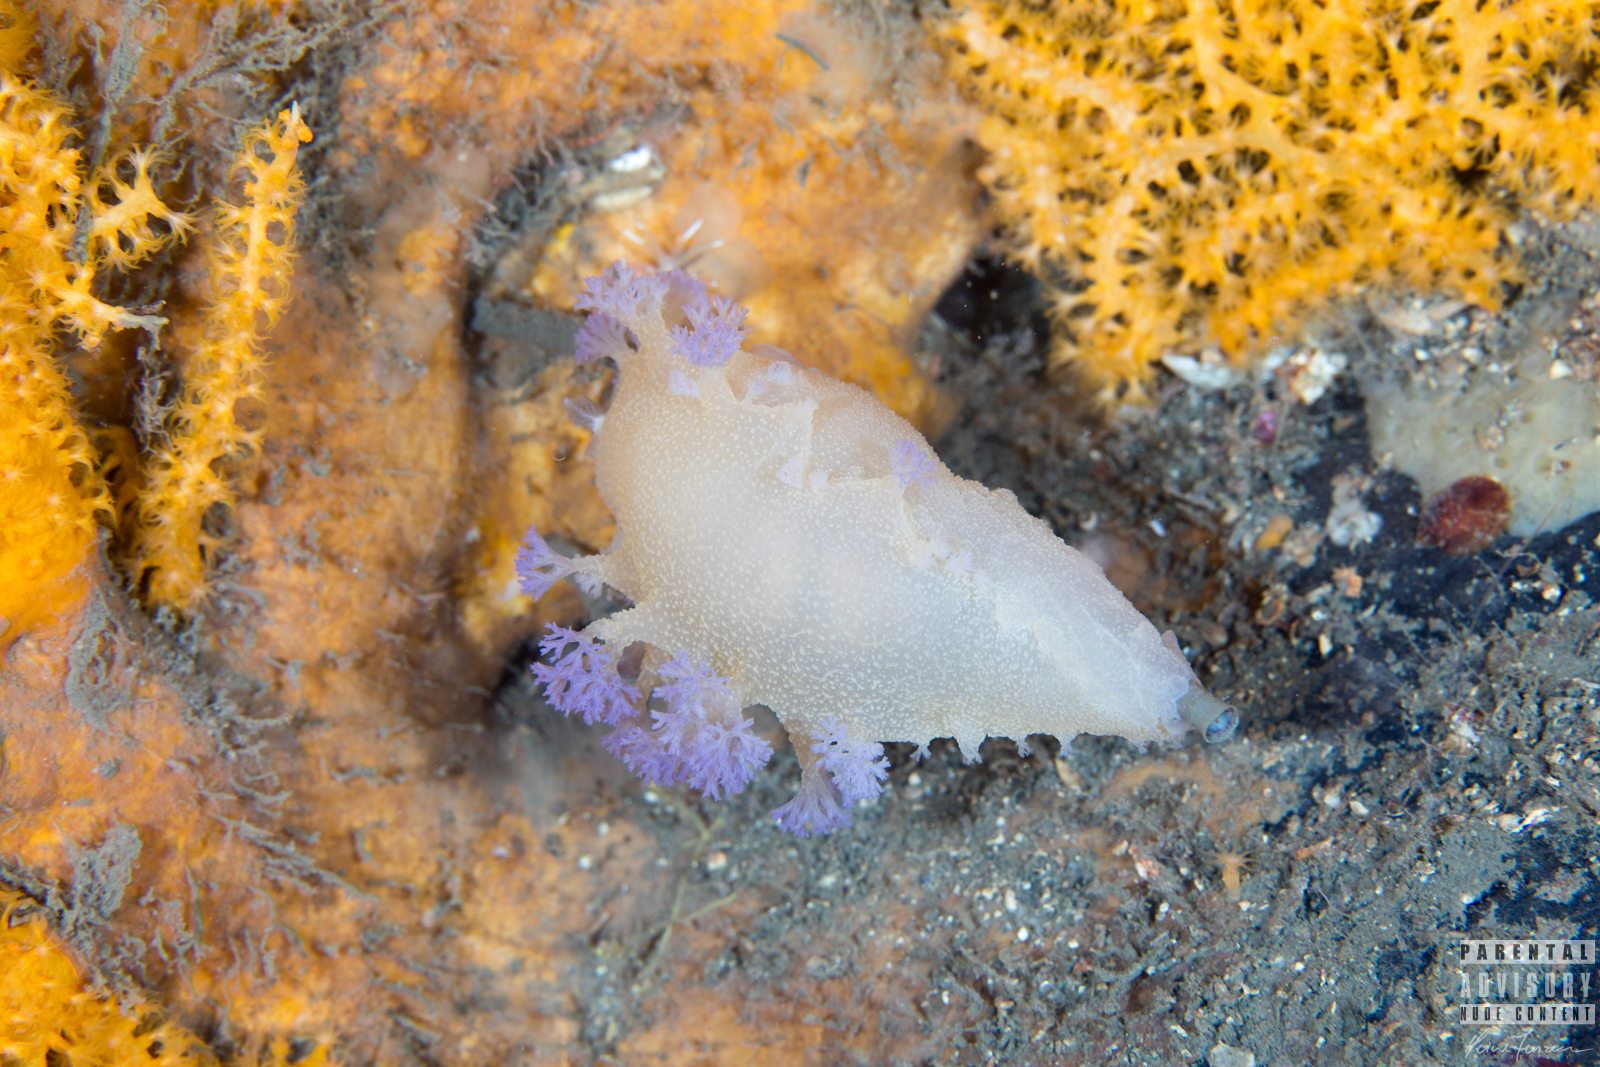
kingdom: Animalia
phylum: Mollusca
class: Gastropoda
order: Nudibranchia
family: Tritoniidae
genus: Tritonia
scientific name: Tritonia griegi
